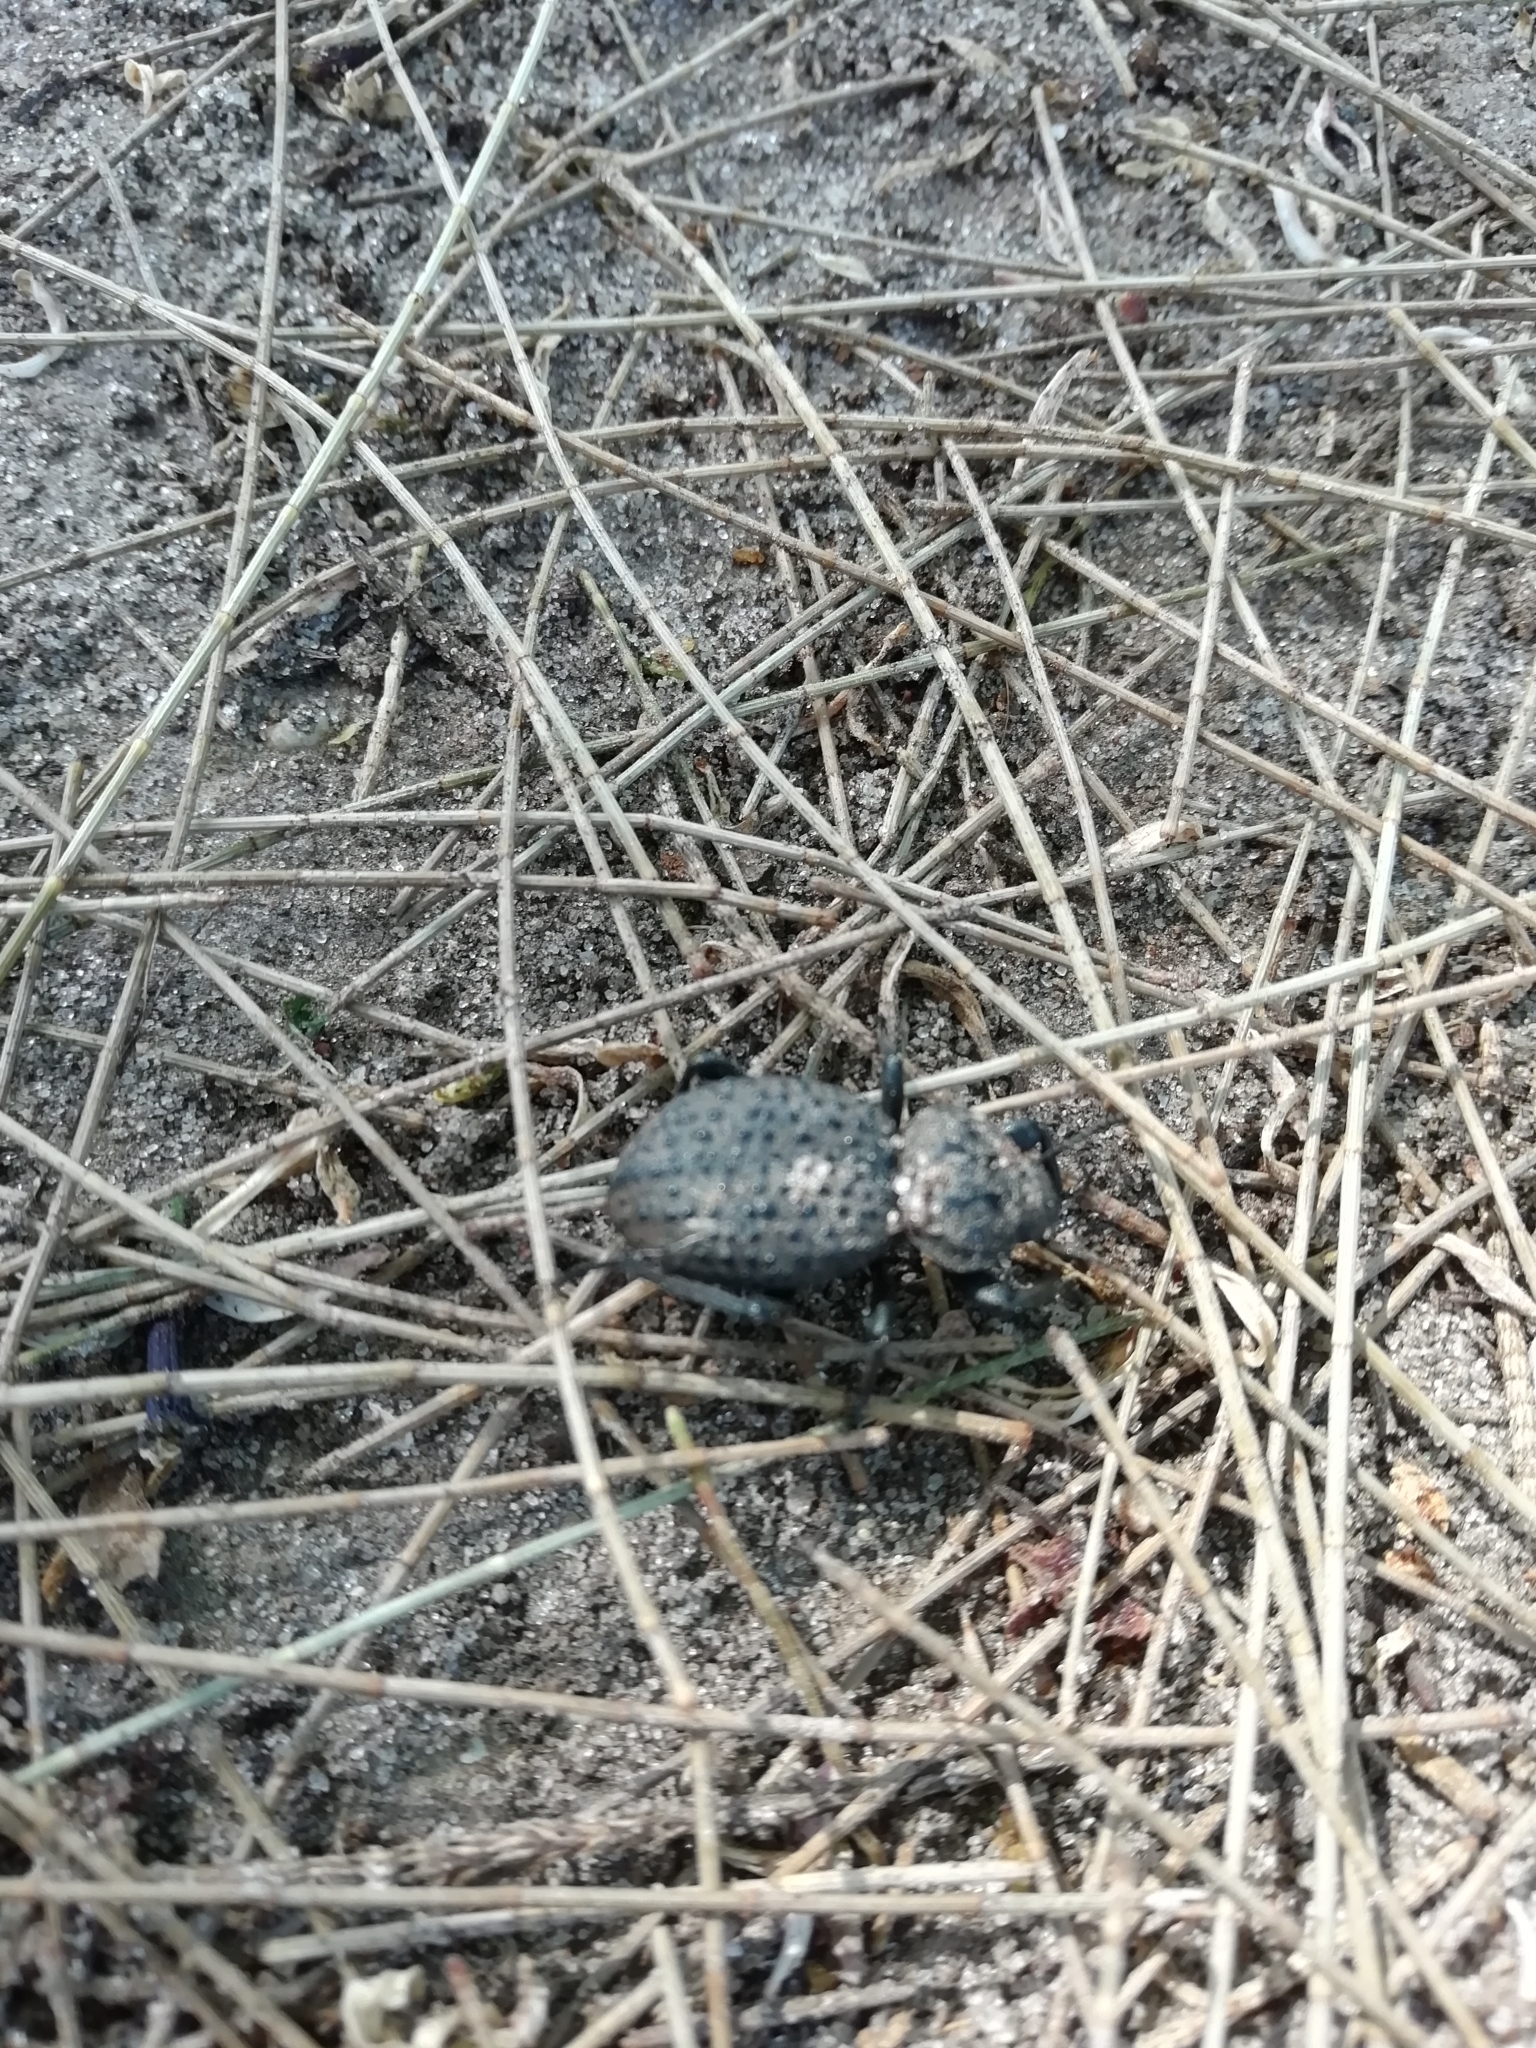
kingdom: Animalia
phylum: Arthropoda
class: Insecta
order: Coleoptera
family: Tenebrionidae
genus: Scotobius
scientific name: Scotobius pilularius
